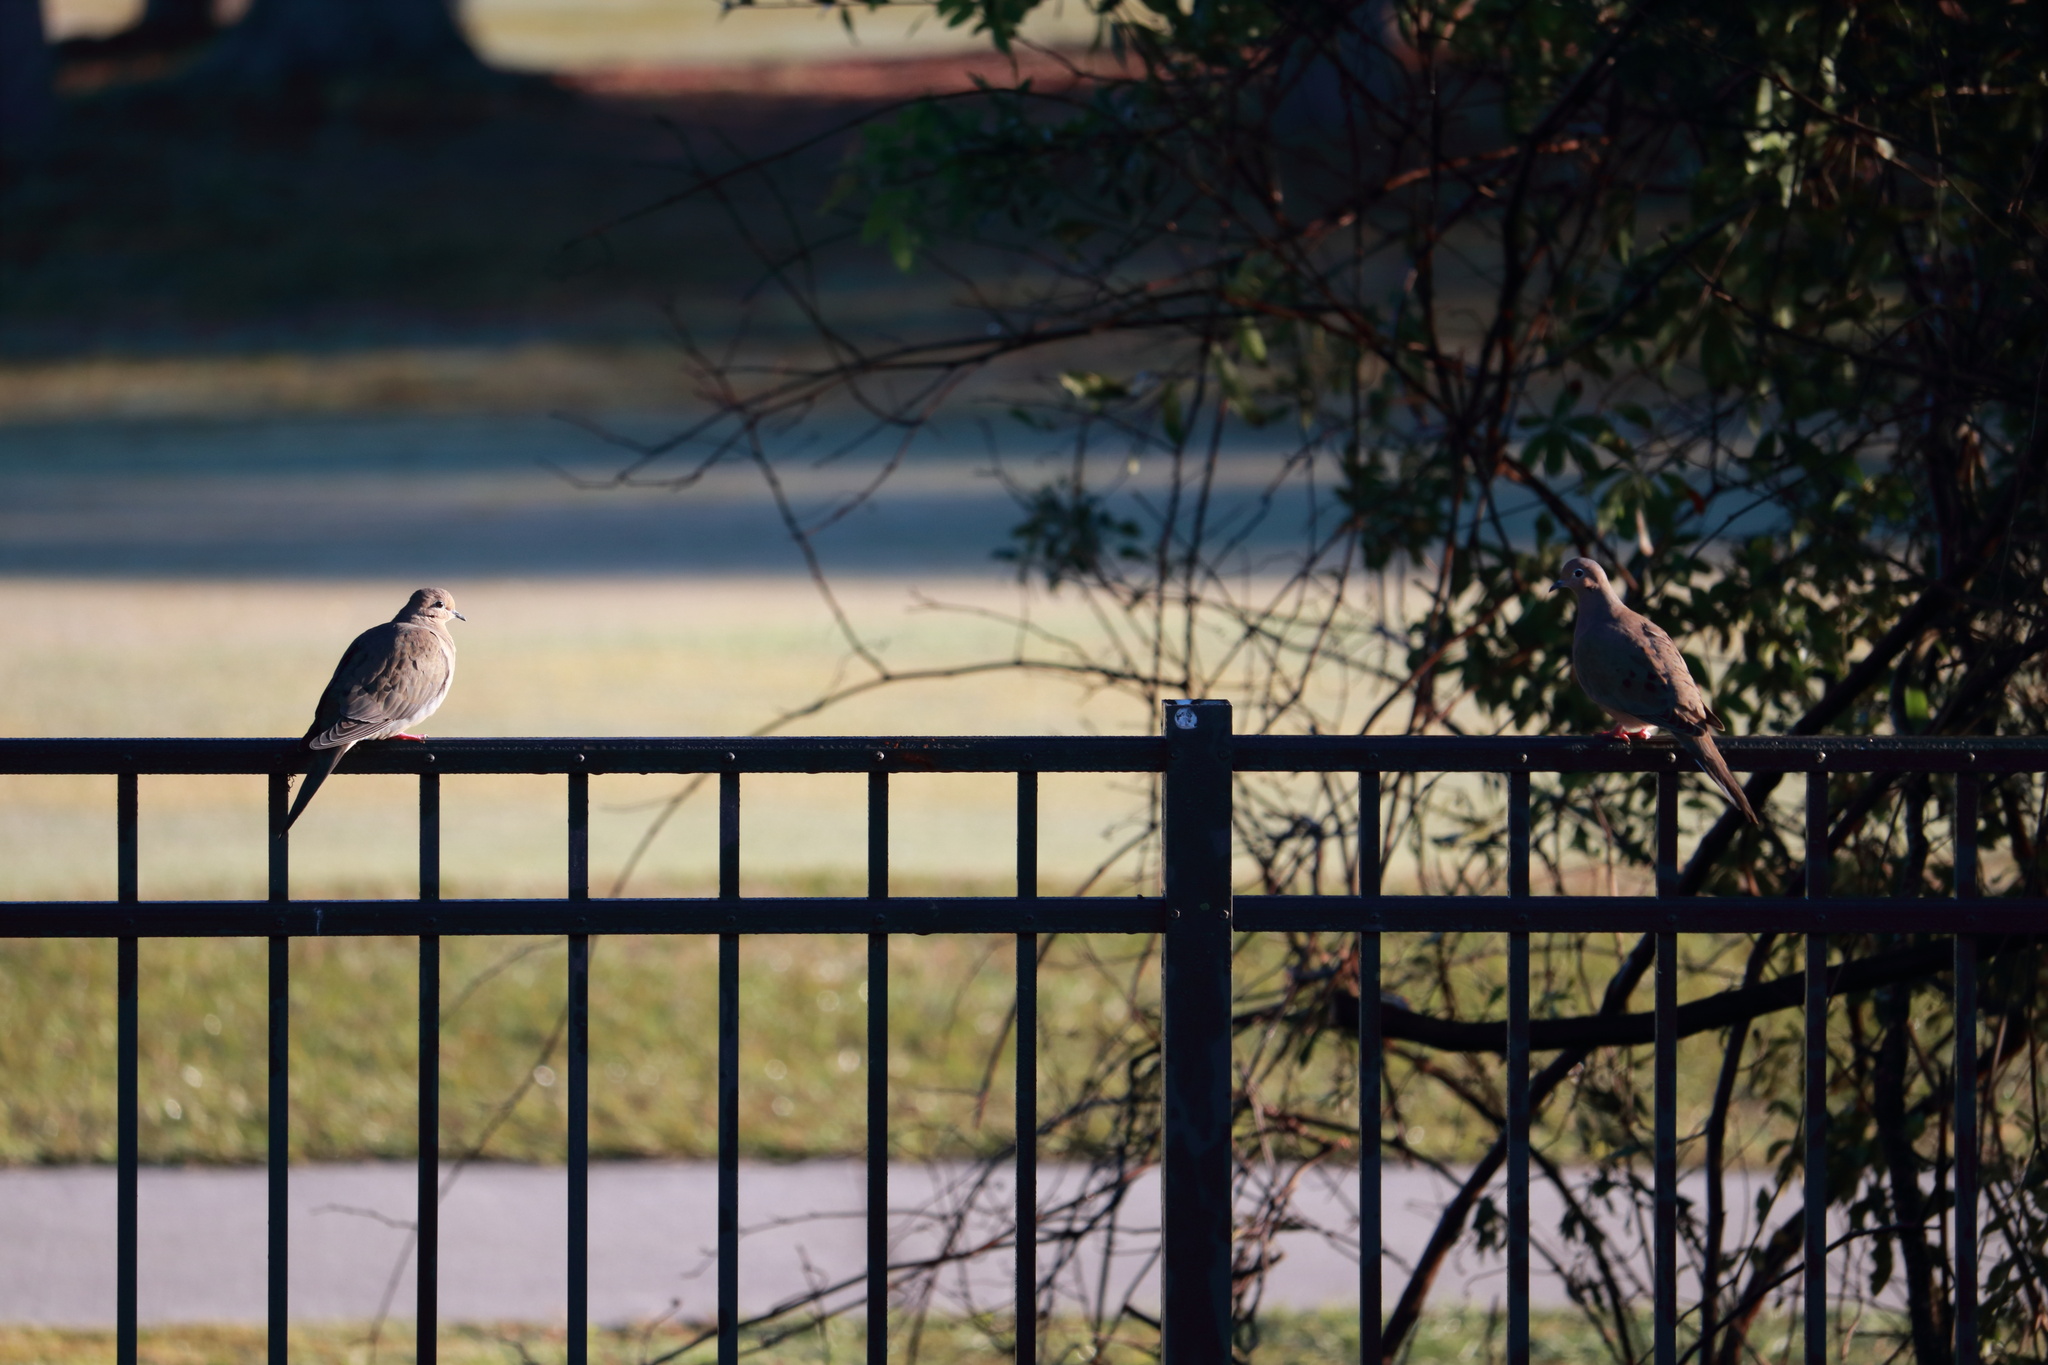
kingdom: Animalia
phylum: Chordata
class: Aves
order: Columbiformes
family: Columbidae
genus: Zenaida
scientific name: Zenaida macroura
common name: Mourning dove
